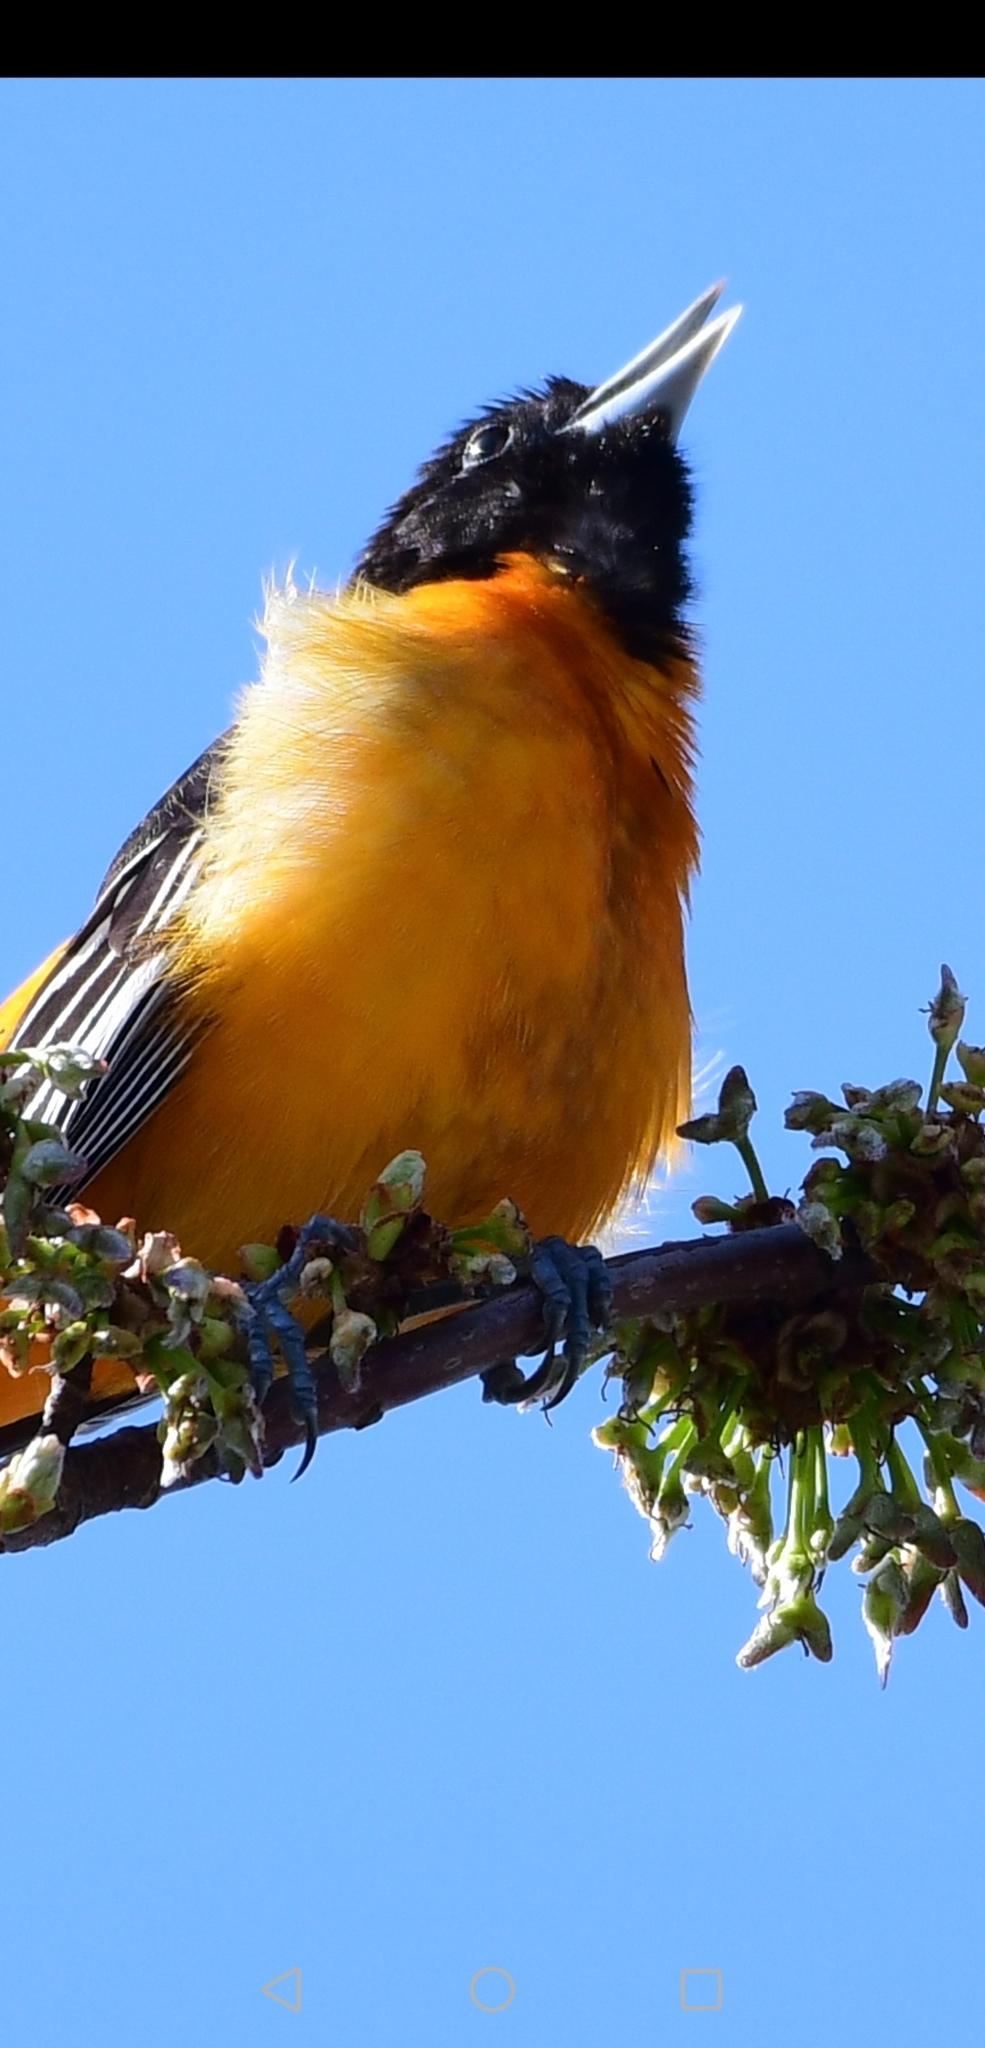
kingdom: Animalia
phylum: Chordata
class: Aves
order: Passeriformes
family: Icteridae
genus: Icterus
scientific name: Icterus galbula
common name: Baltimore oriole
